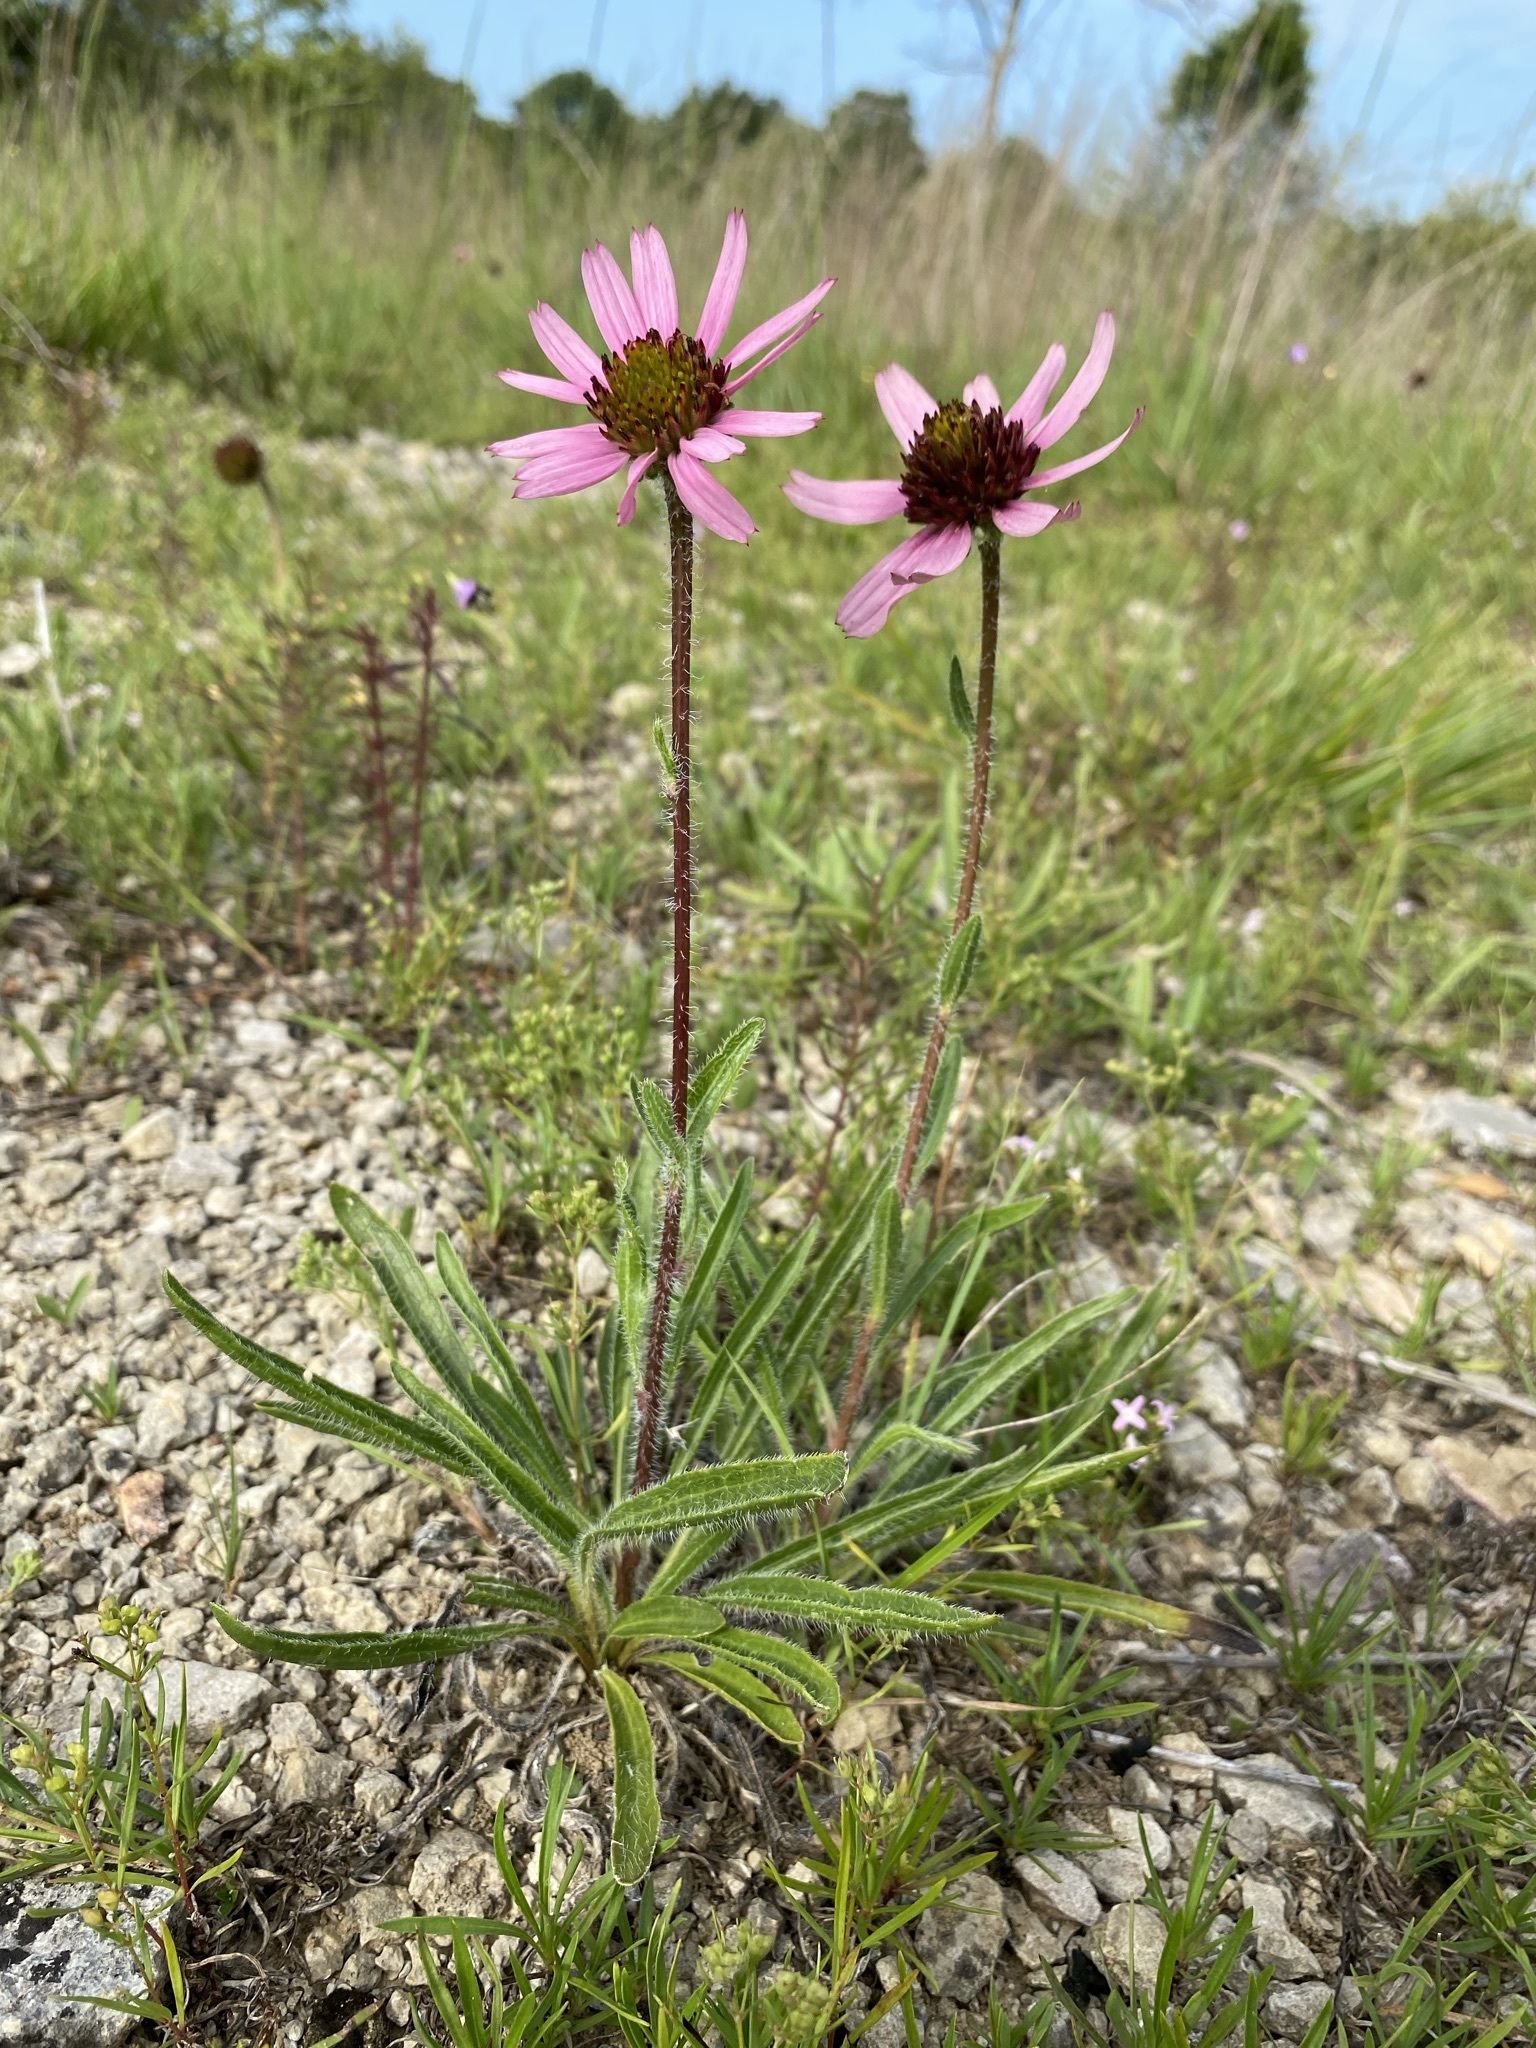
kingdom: Plantae
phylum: Tracheophyta
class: Magnoliopsida
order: Asterales
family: Asteraceae
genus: Echinacea
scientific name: Echinacea tennesseensis
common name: Tennessee purple-coneflower
